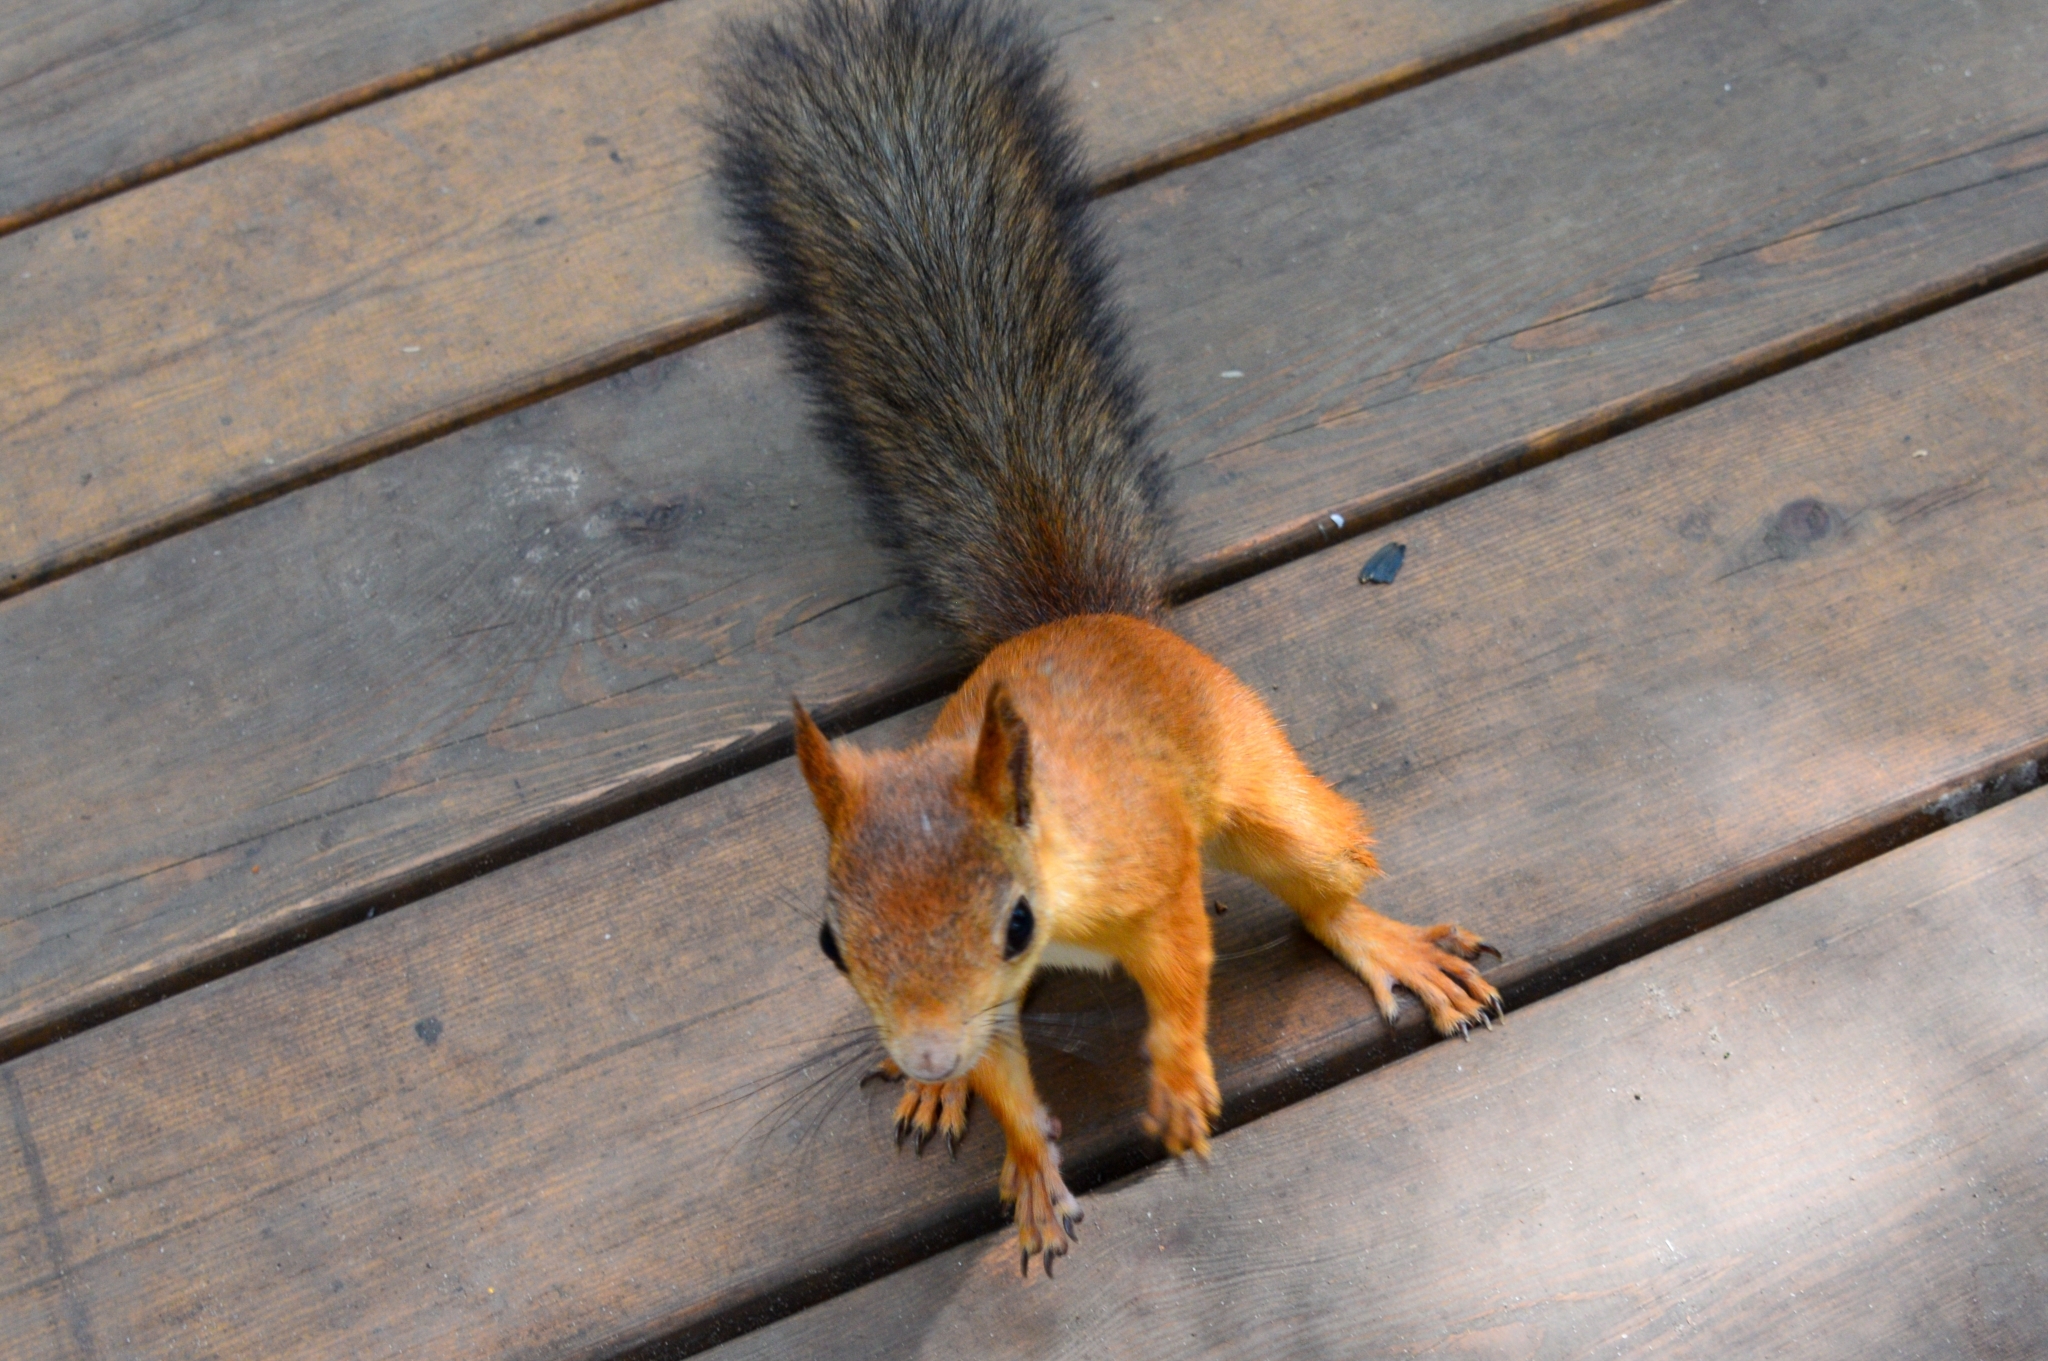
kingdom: Animalia
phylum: Chordata
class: Mammalia
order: Rodentia
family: Sciuridae
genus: Sciurus
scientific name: Sciurus vulgaris
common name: Eurasian red squirrel
